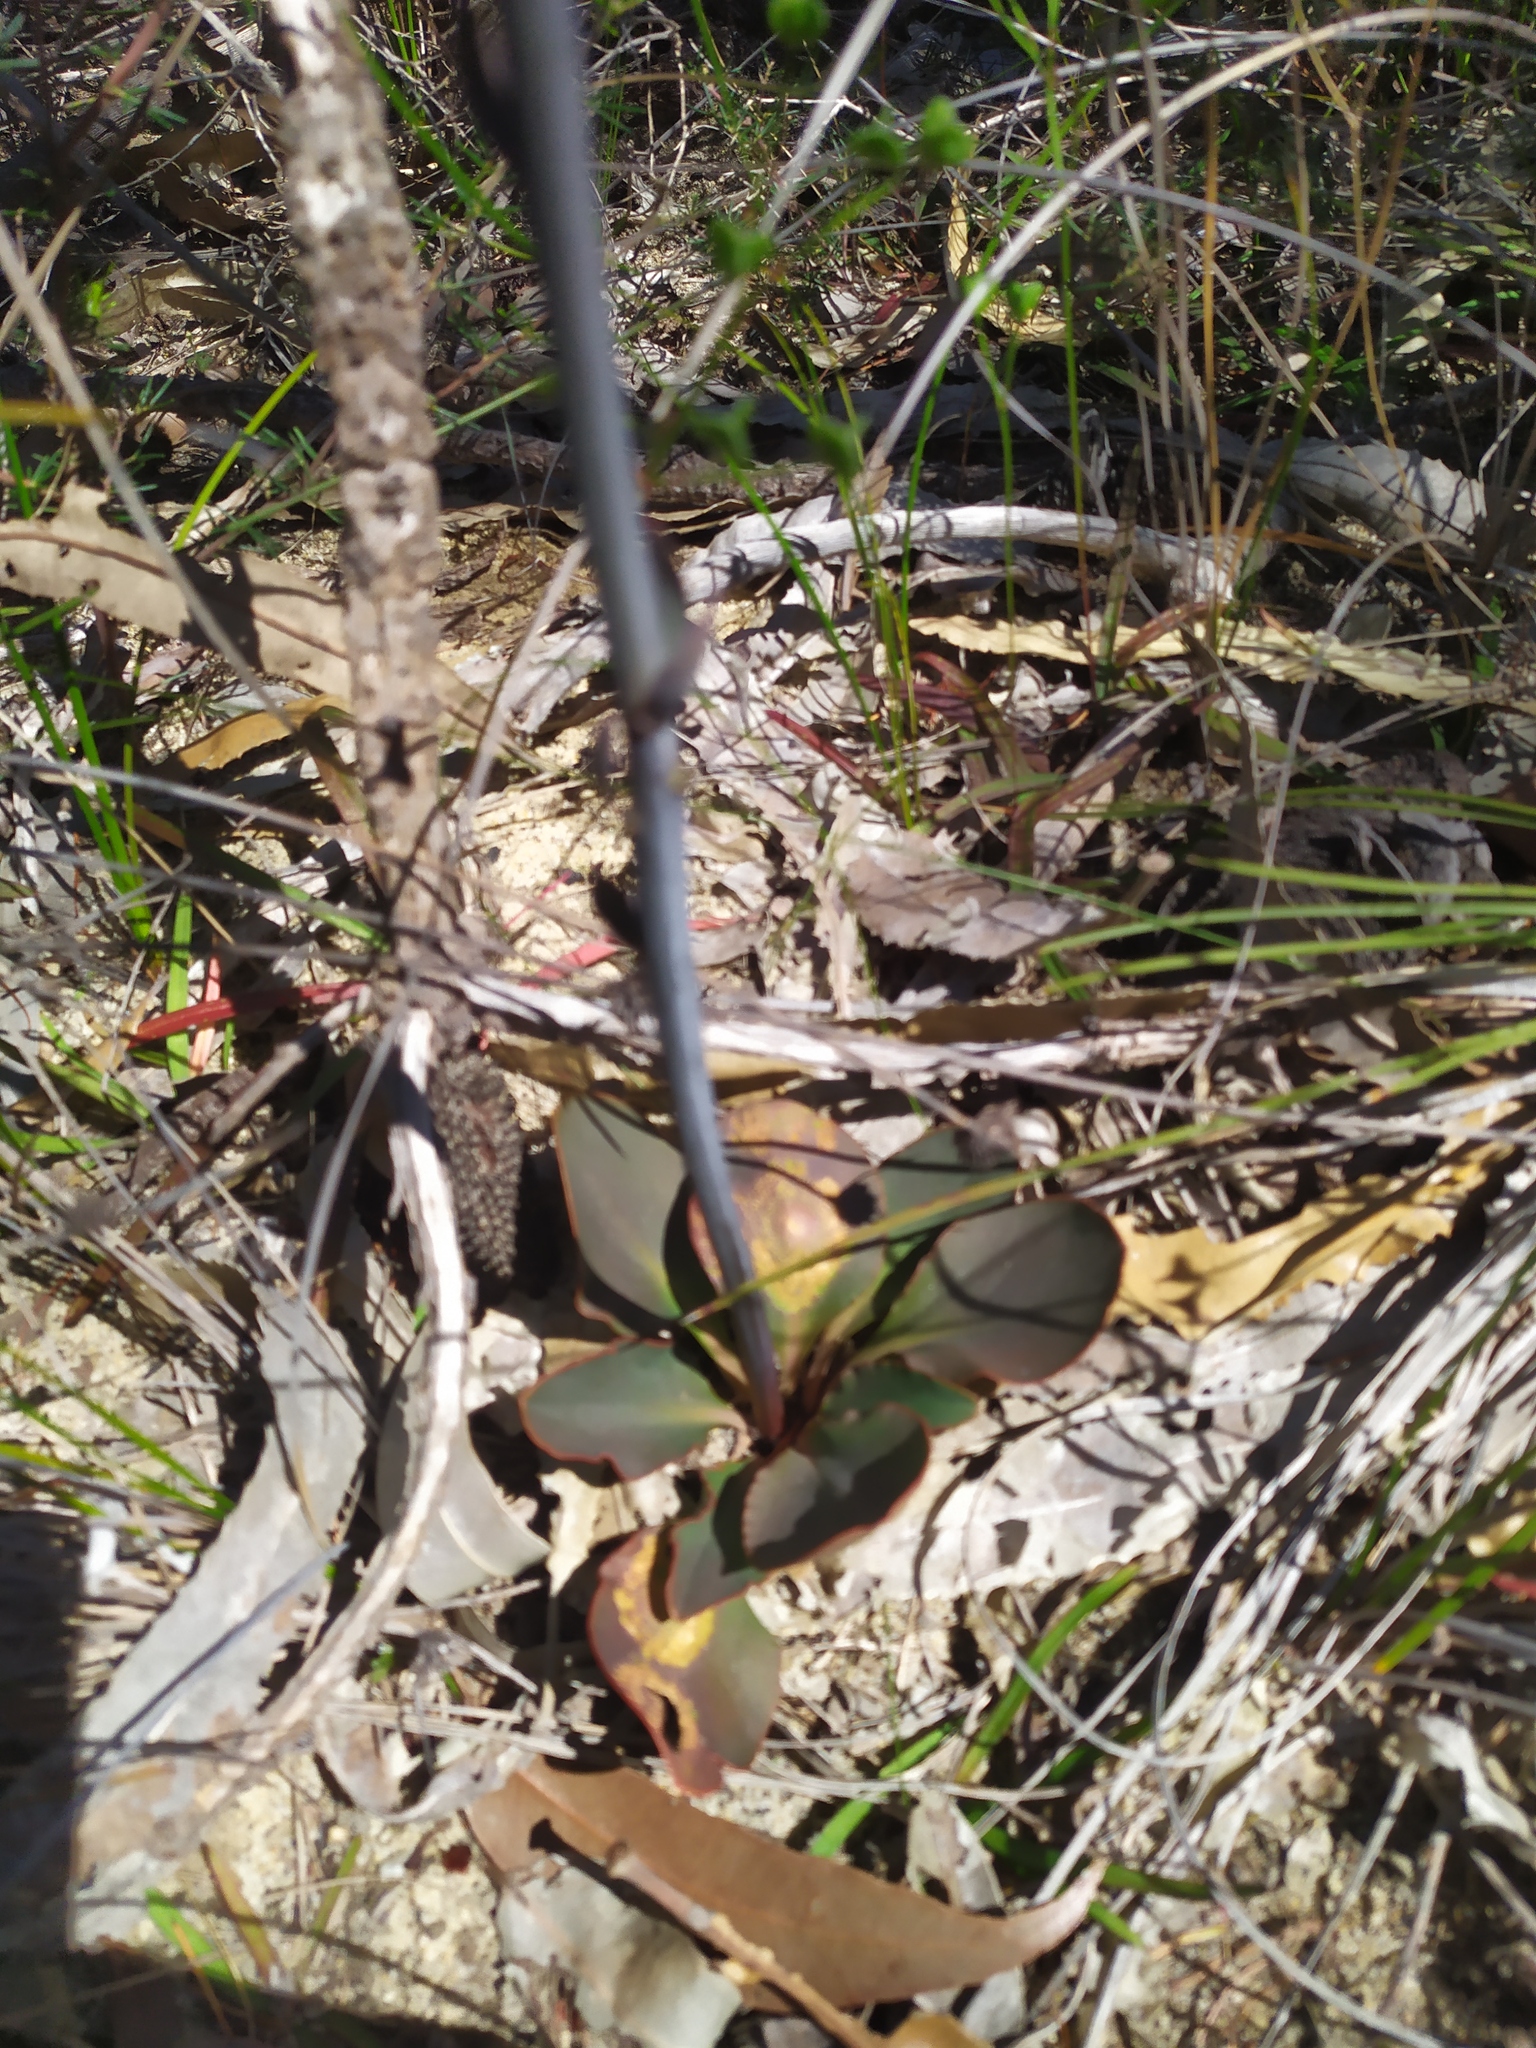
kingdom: Plantae
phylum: Tracheophyta
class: Magnoliopsida
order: Asterales
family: Stylidiaceae
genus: Stylidium
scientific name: Stylidium carnosum
